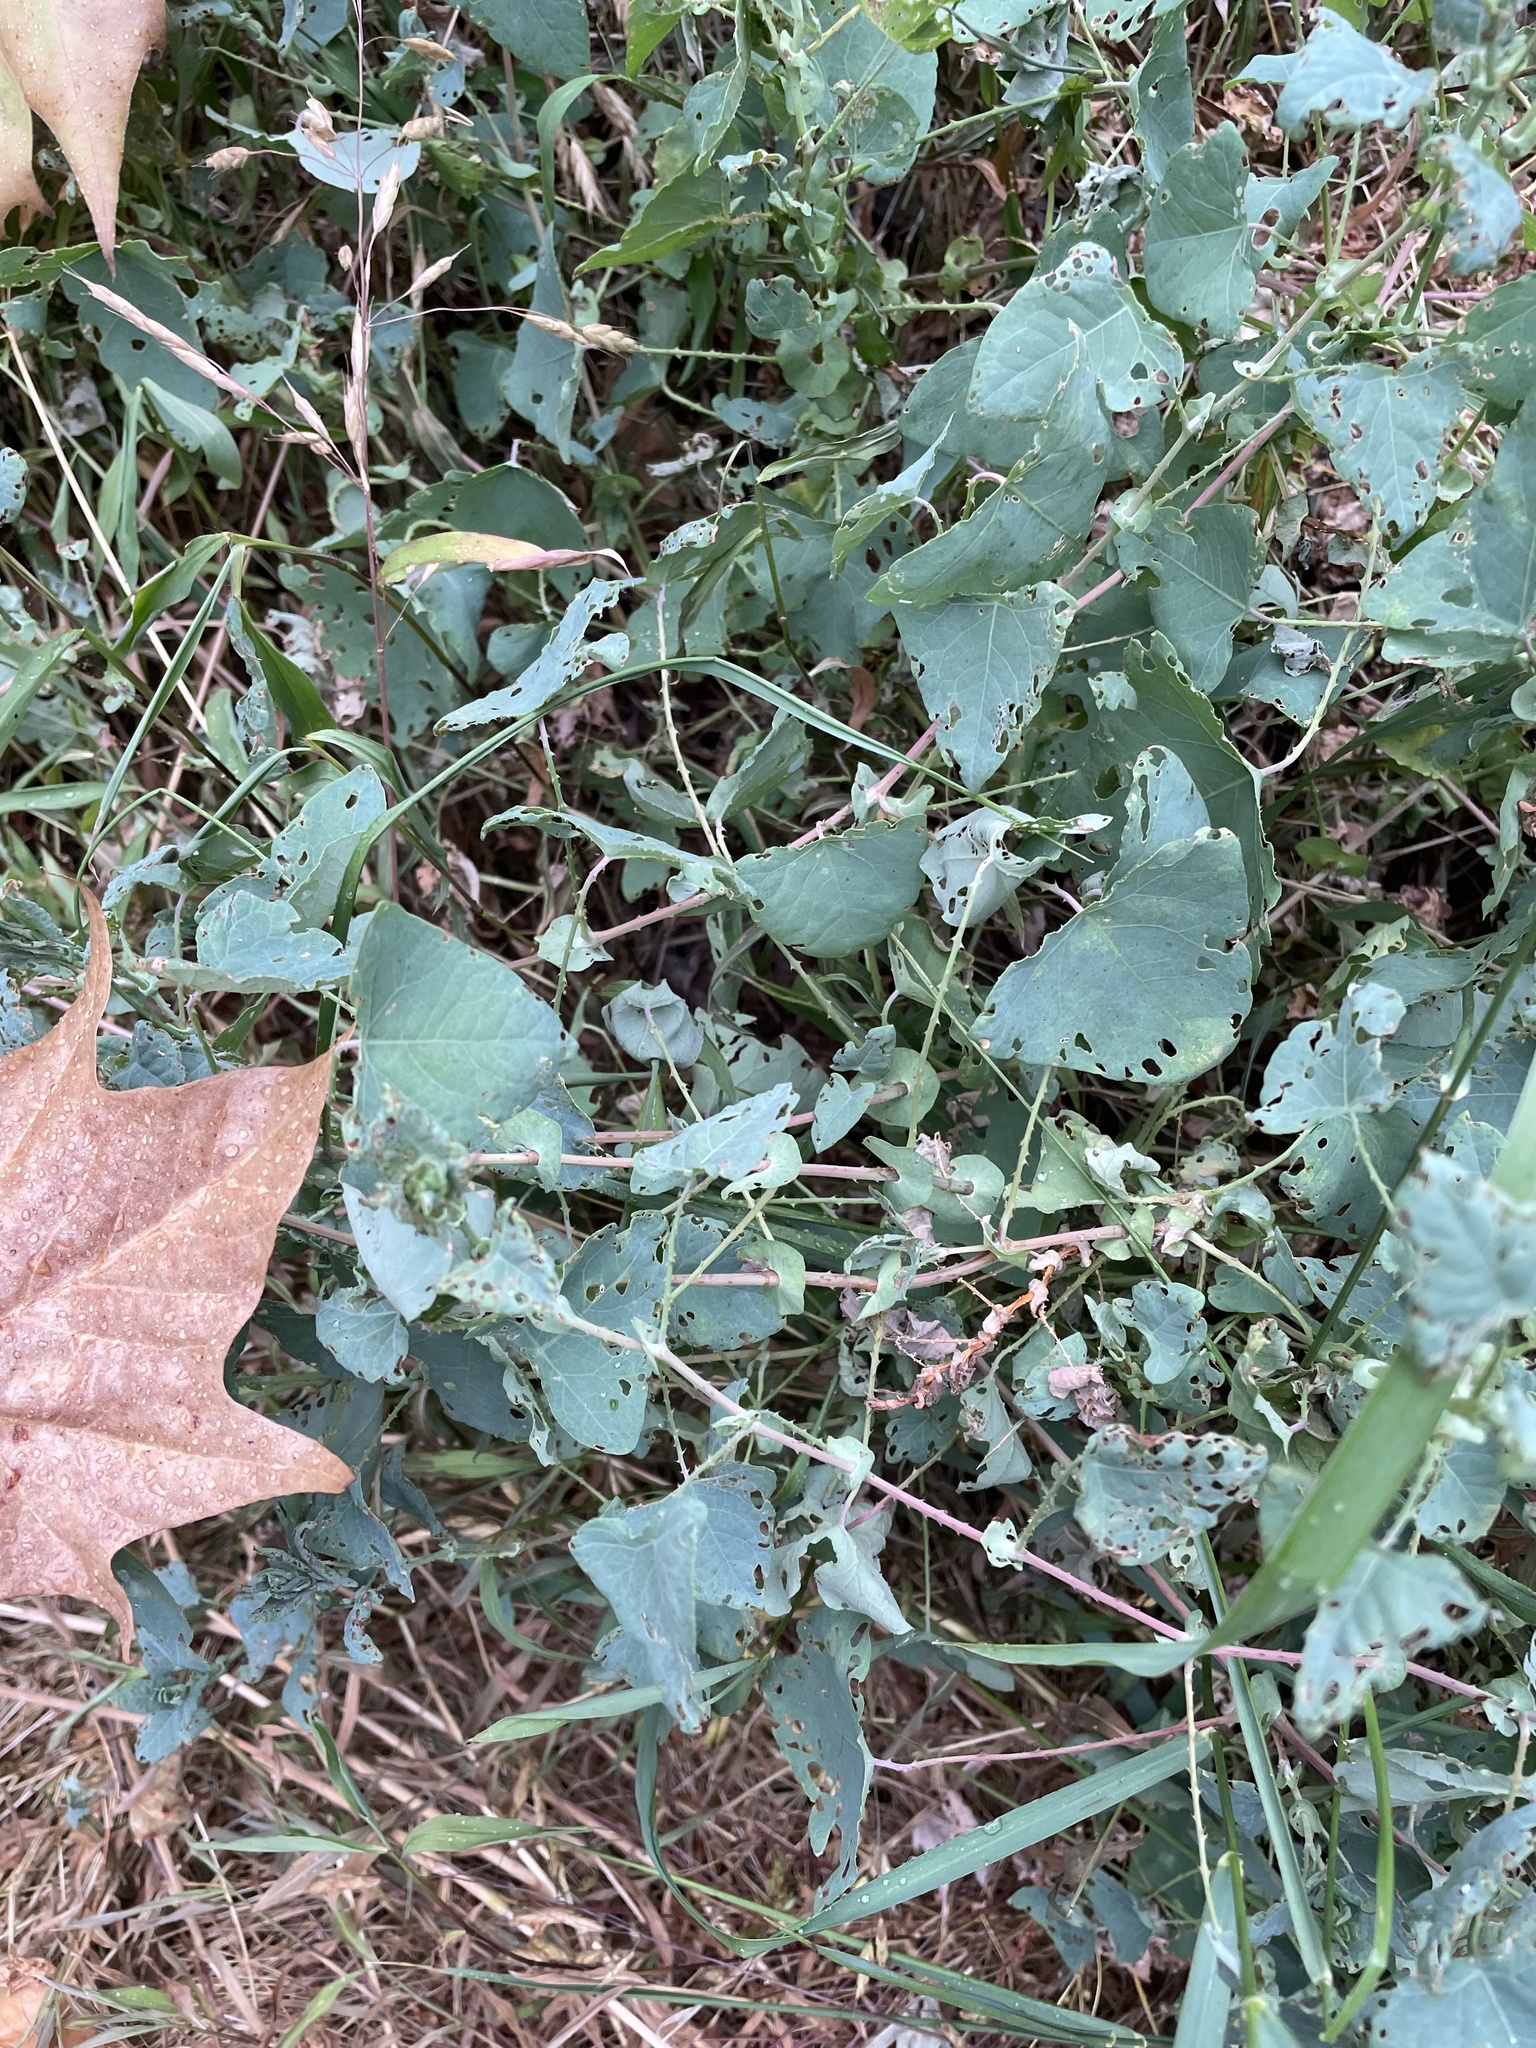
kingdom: Plantae
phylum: Tracheophyta
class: Magnoliopsida
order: Caryophyllales
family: Polygonaceae
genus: Persicaria
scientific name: Persicaria perfoliata
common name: Asiatic tearthumb
